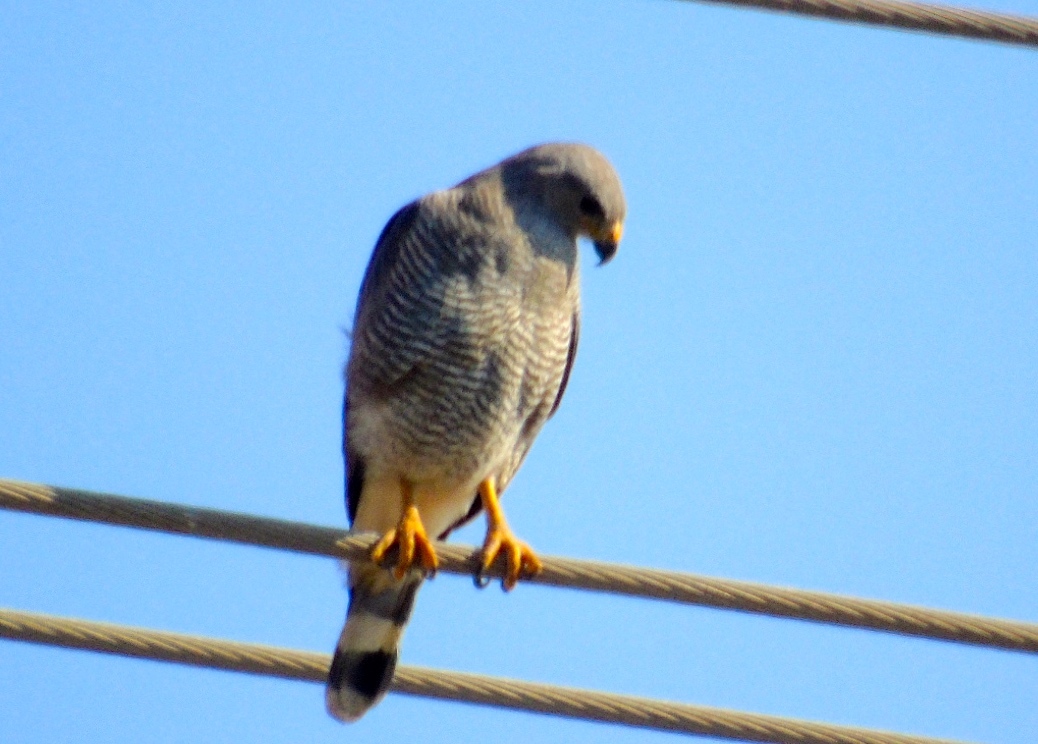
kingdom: Animalia
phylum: Chordata
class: Aves
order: Accipitriformes
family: Accipitridae
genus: Buteo
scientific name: Buteo nitidus
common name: Grey-lined hawk
